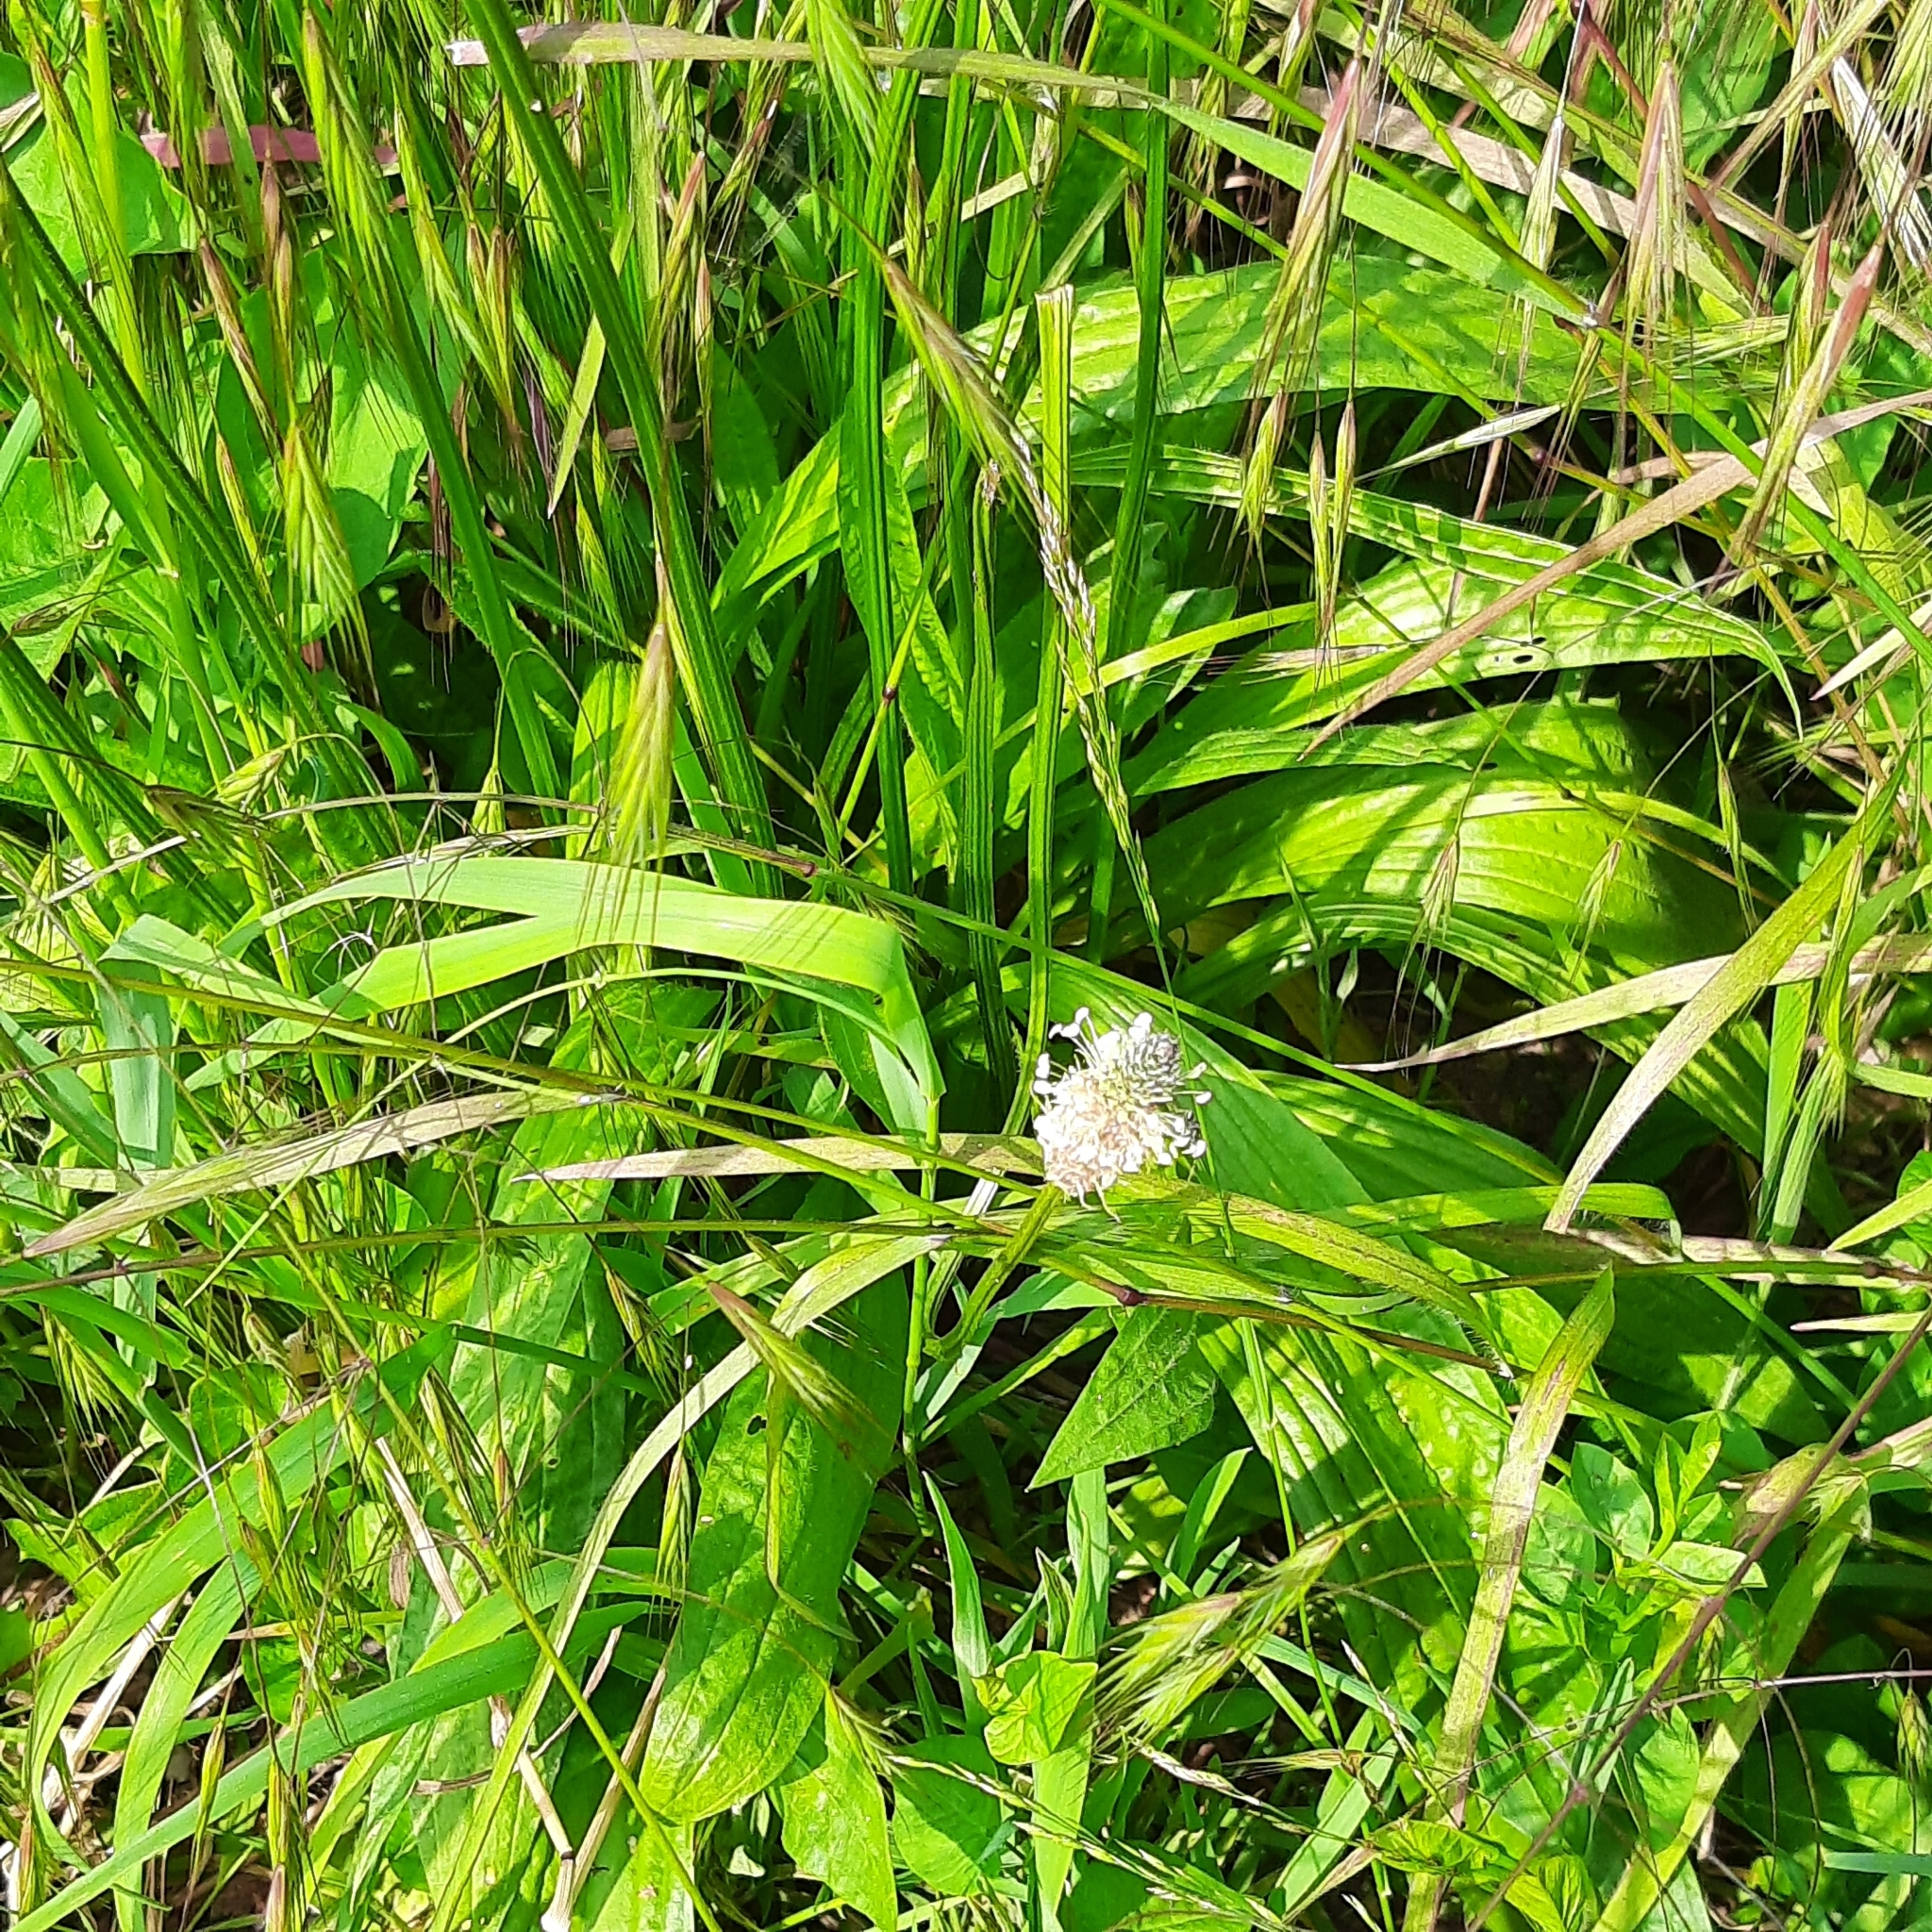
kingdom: Plantae
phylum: Tracheophyta
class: Magnoliopsida
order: Lamiales
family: Plantaginaceae
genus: Plantago
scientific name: Plantago lanceolata
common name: Ribwort plantain
